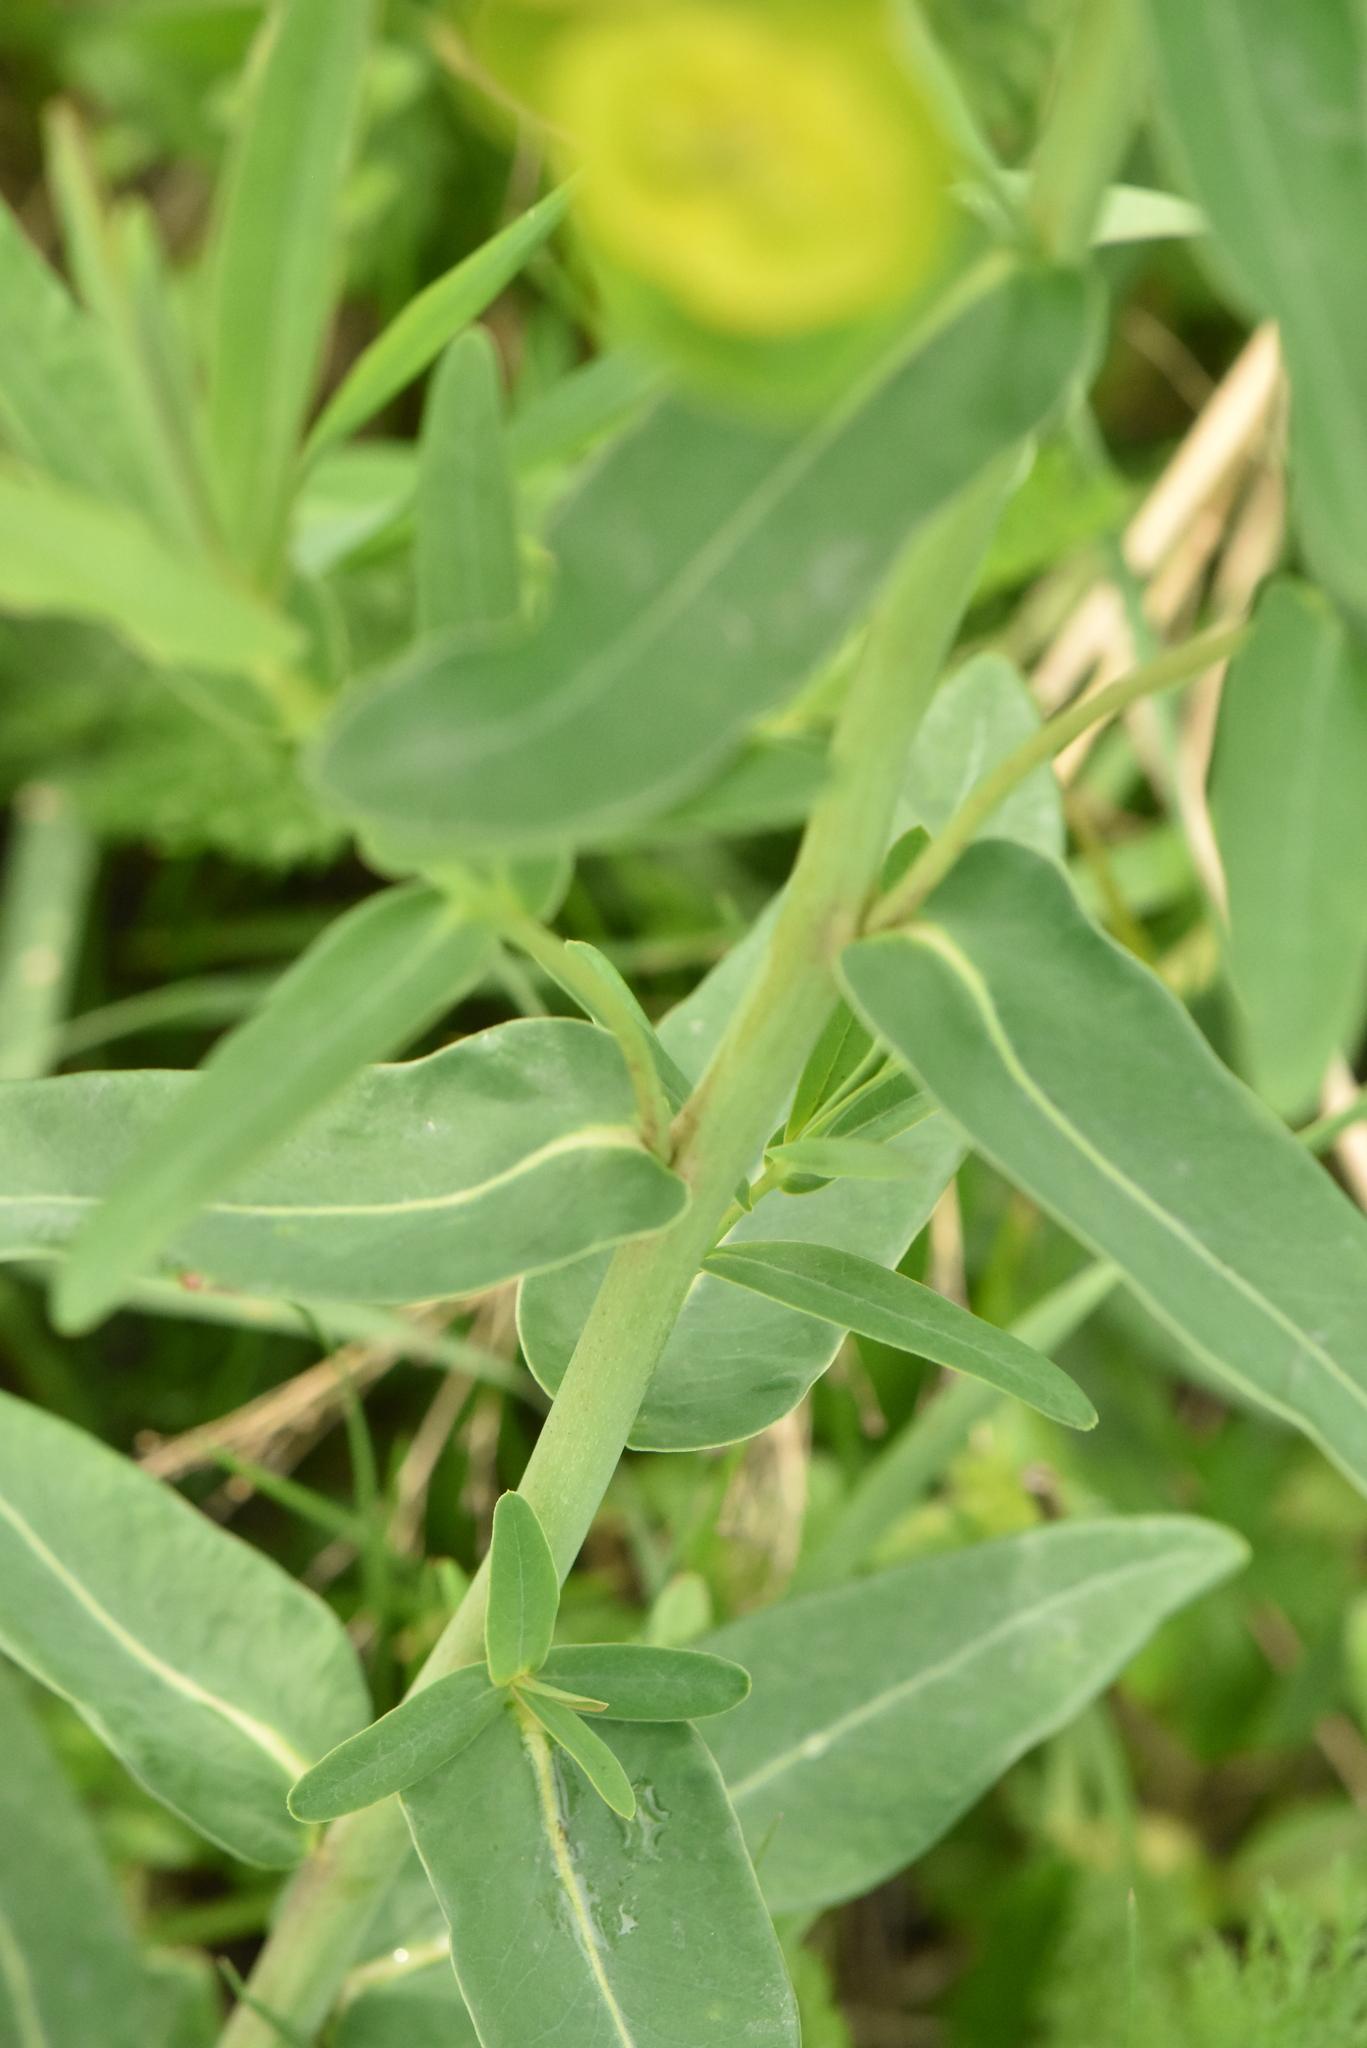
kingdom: Plantae
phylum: Tracheophyta
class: Magnoliopsida
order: Malpighiales
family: Euphorbiaceae
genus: Euphorbia
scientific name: Euphorbia virgata
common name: Leafy spurge
